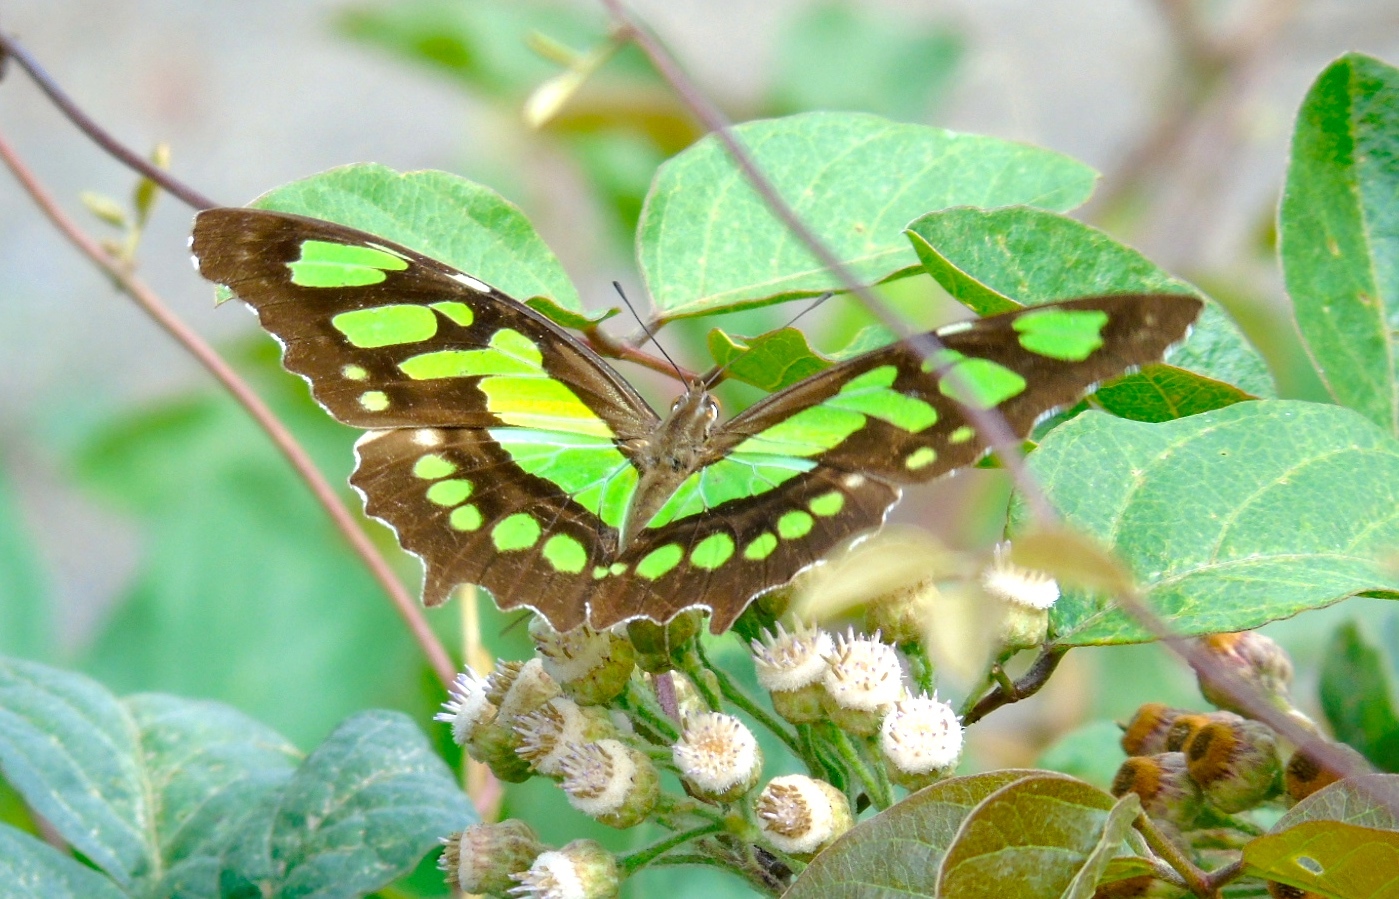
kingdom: Animalia
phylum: Arthropoda
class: Insecta
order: Lepidoptera
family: Nymphalidae
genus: Siproeta
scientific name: Siproeta stelenes
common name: Malachite
